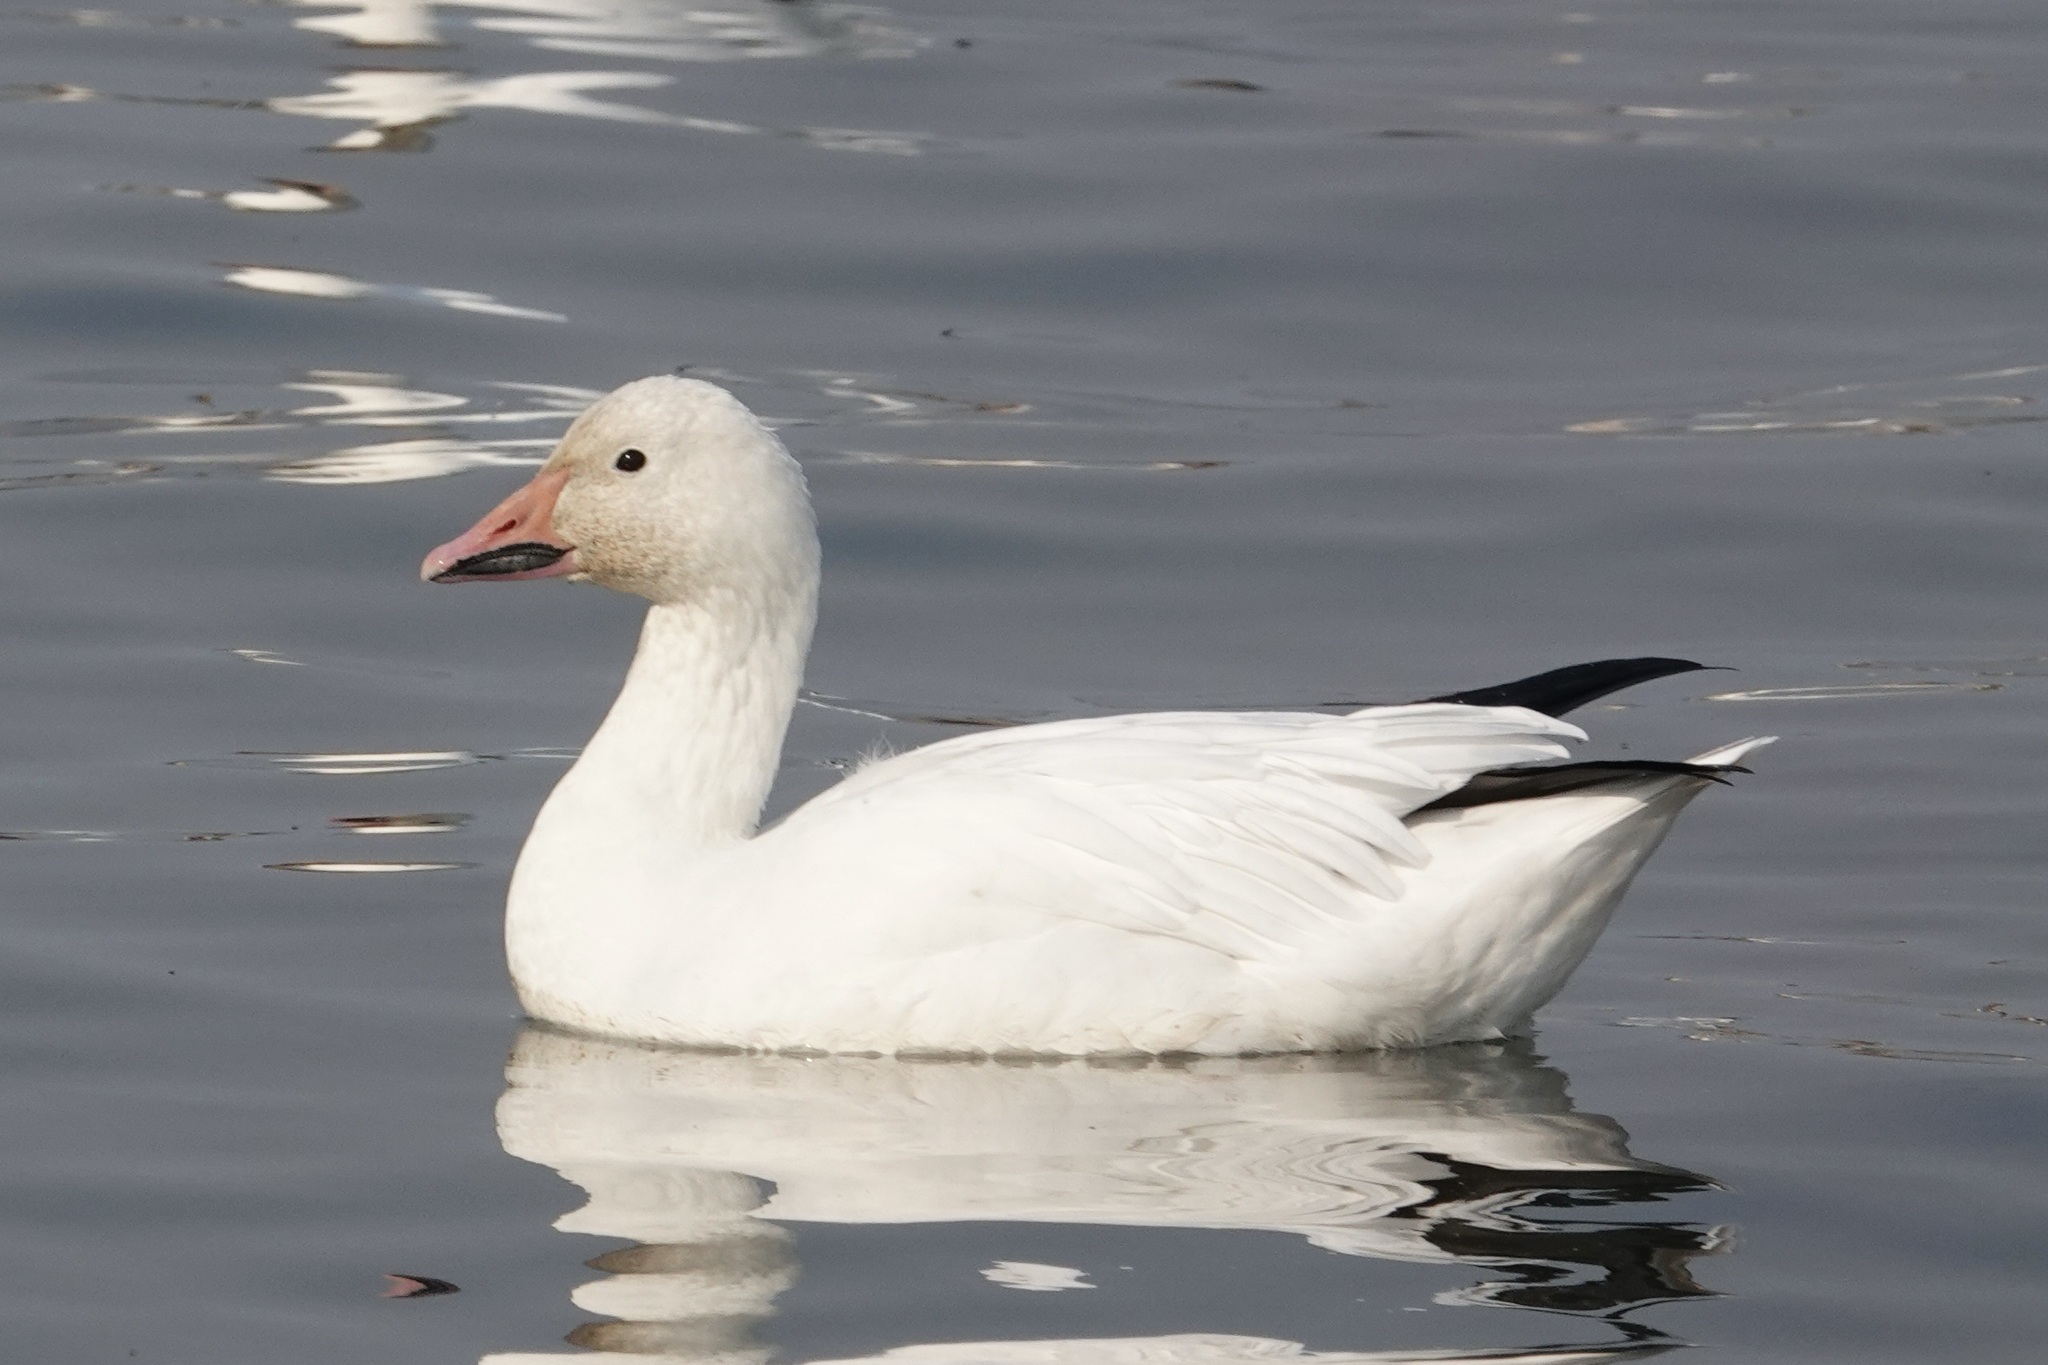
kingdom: Animalia
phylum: Chordata
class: Aves
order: Anseriformes
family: Anatidae
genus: Anser
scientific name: Anser caerulescens
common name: Snow goose
